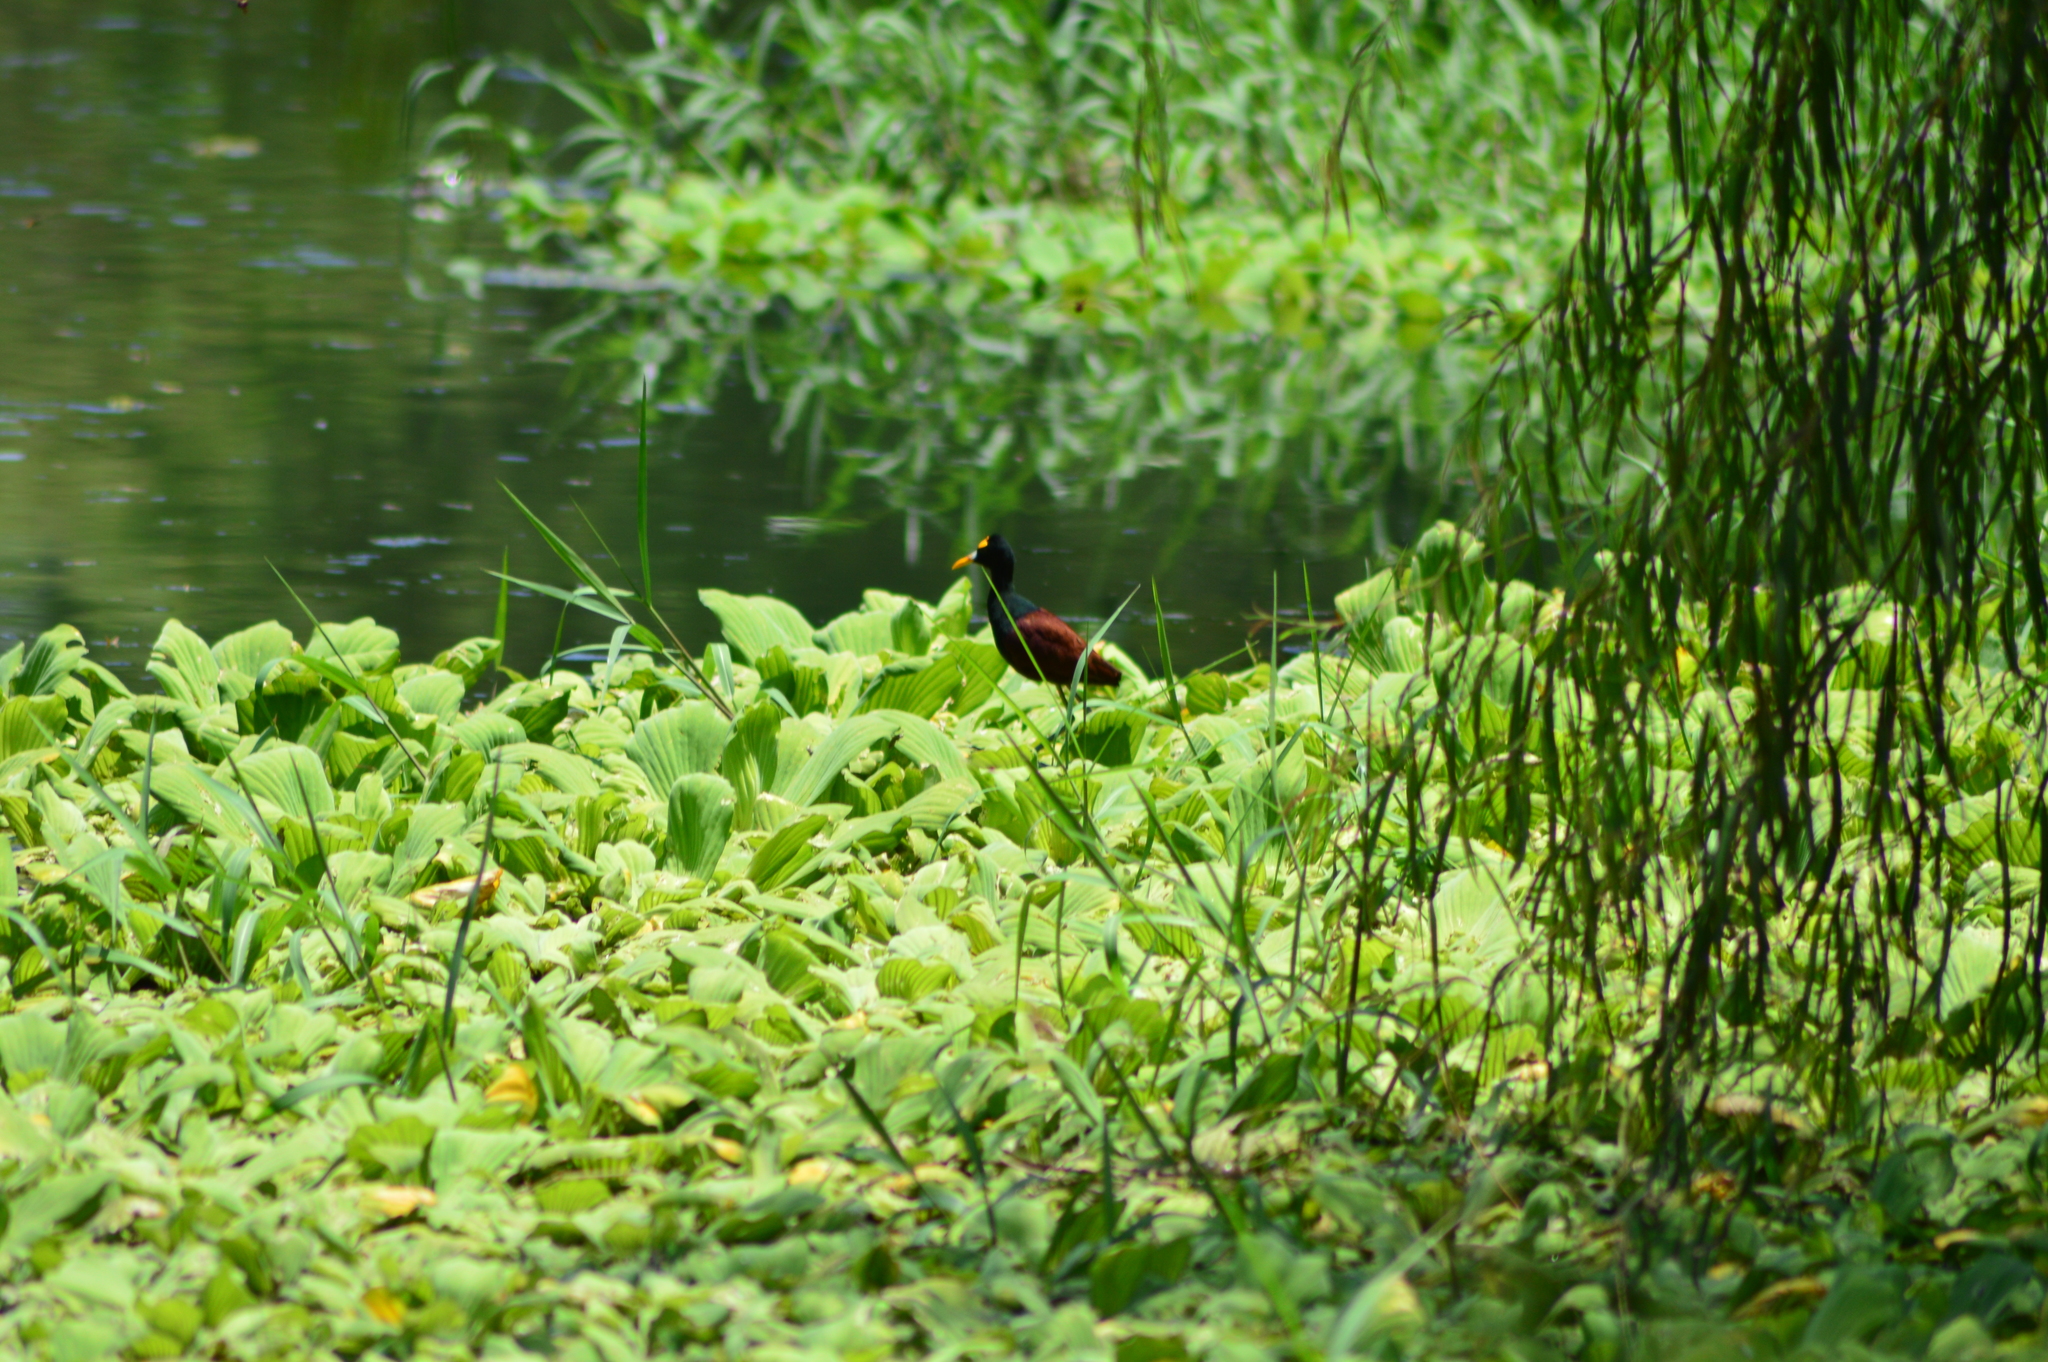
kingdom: Animalia
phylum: Chordata
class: Aves
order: Charadriiformes
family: Jacanidae
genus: Jacana
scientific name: Jacana spinosa
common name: Northern jacana
